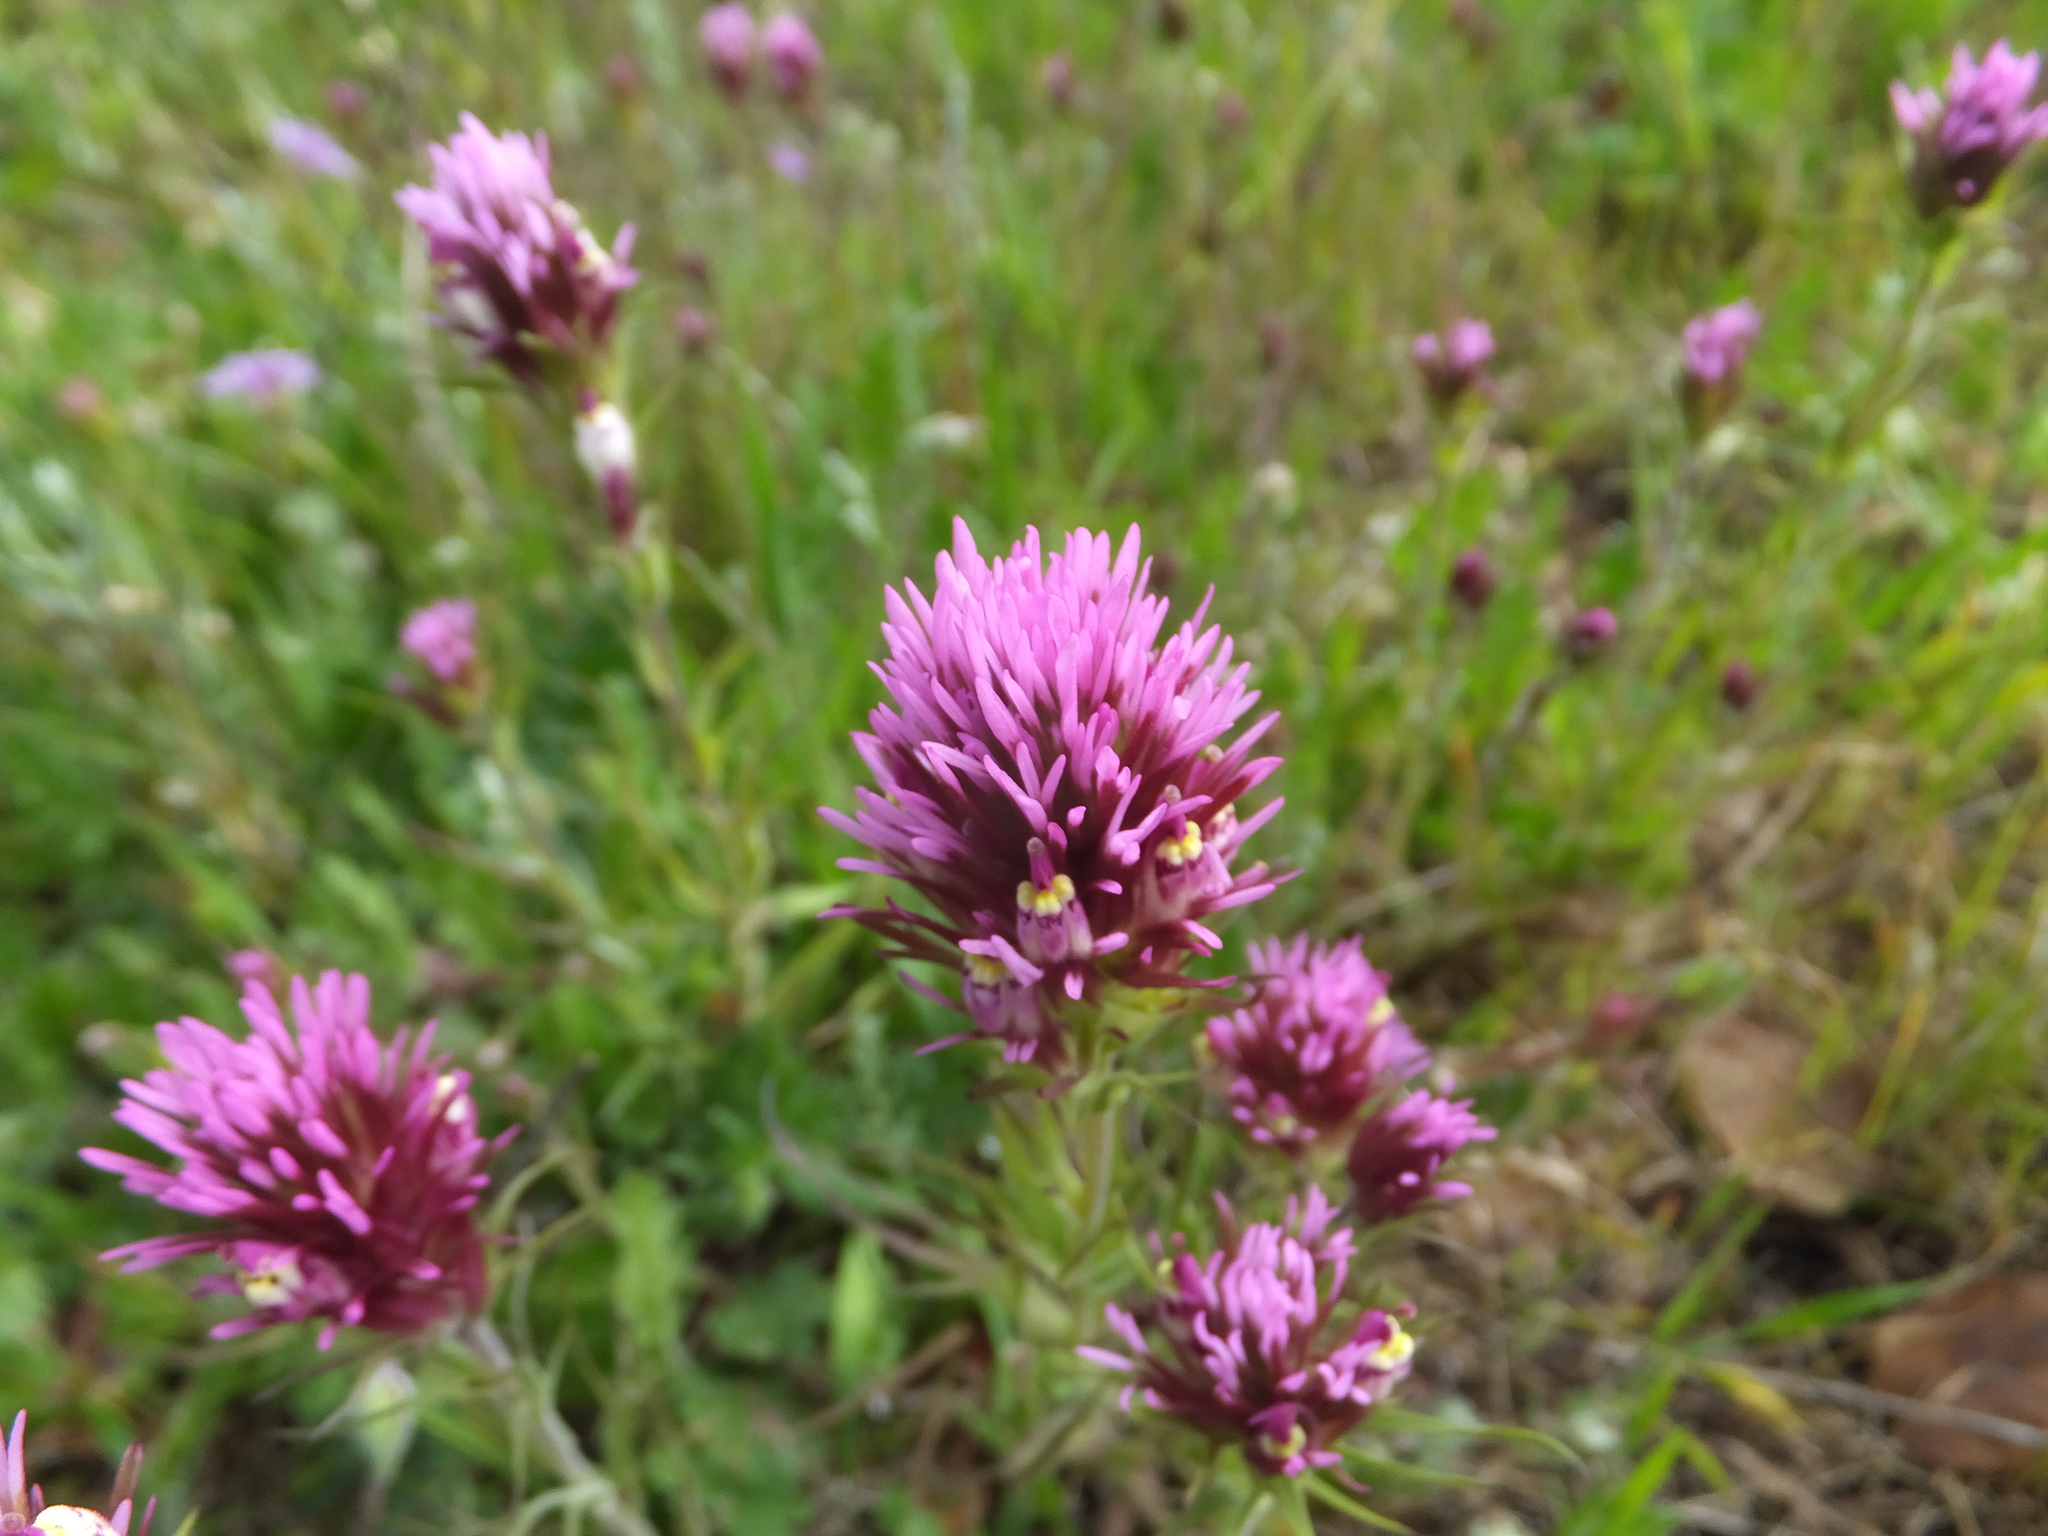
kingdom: Plantae
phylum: Tracheophyta
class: Magnoliopsida
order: Lamiales
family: Orobanchaceae
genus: Castilleja
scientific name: Castilleja densiflora
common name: Dense-flower indian paintbrush
